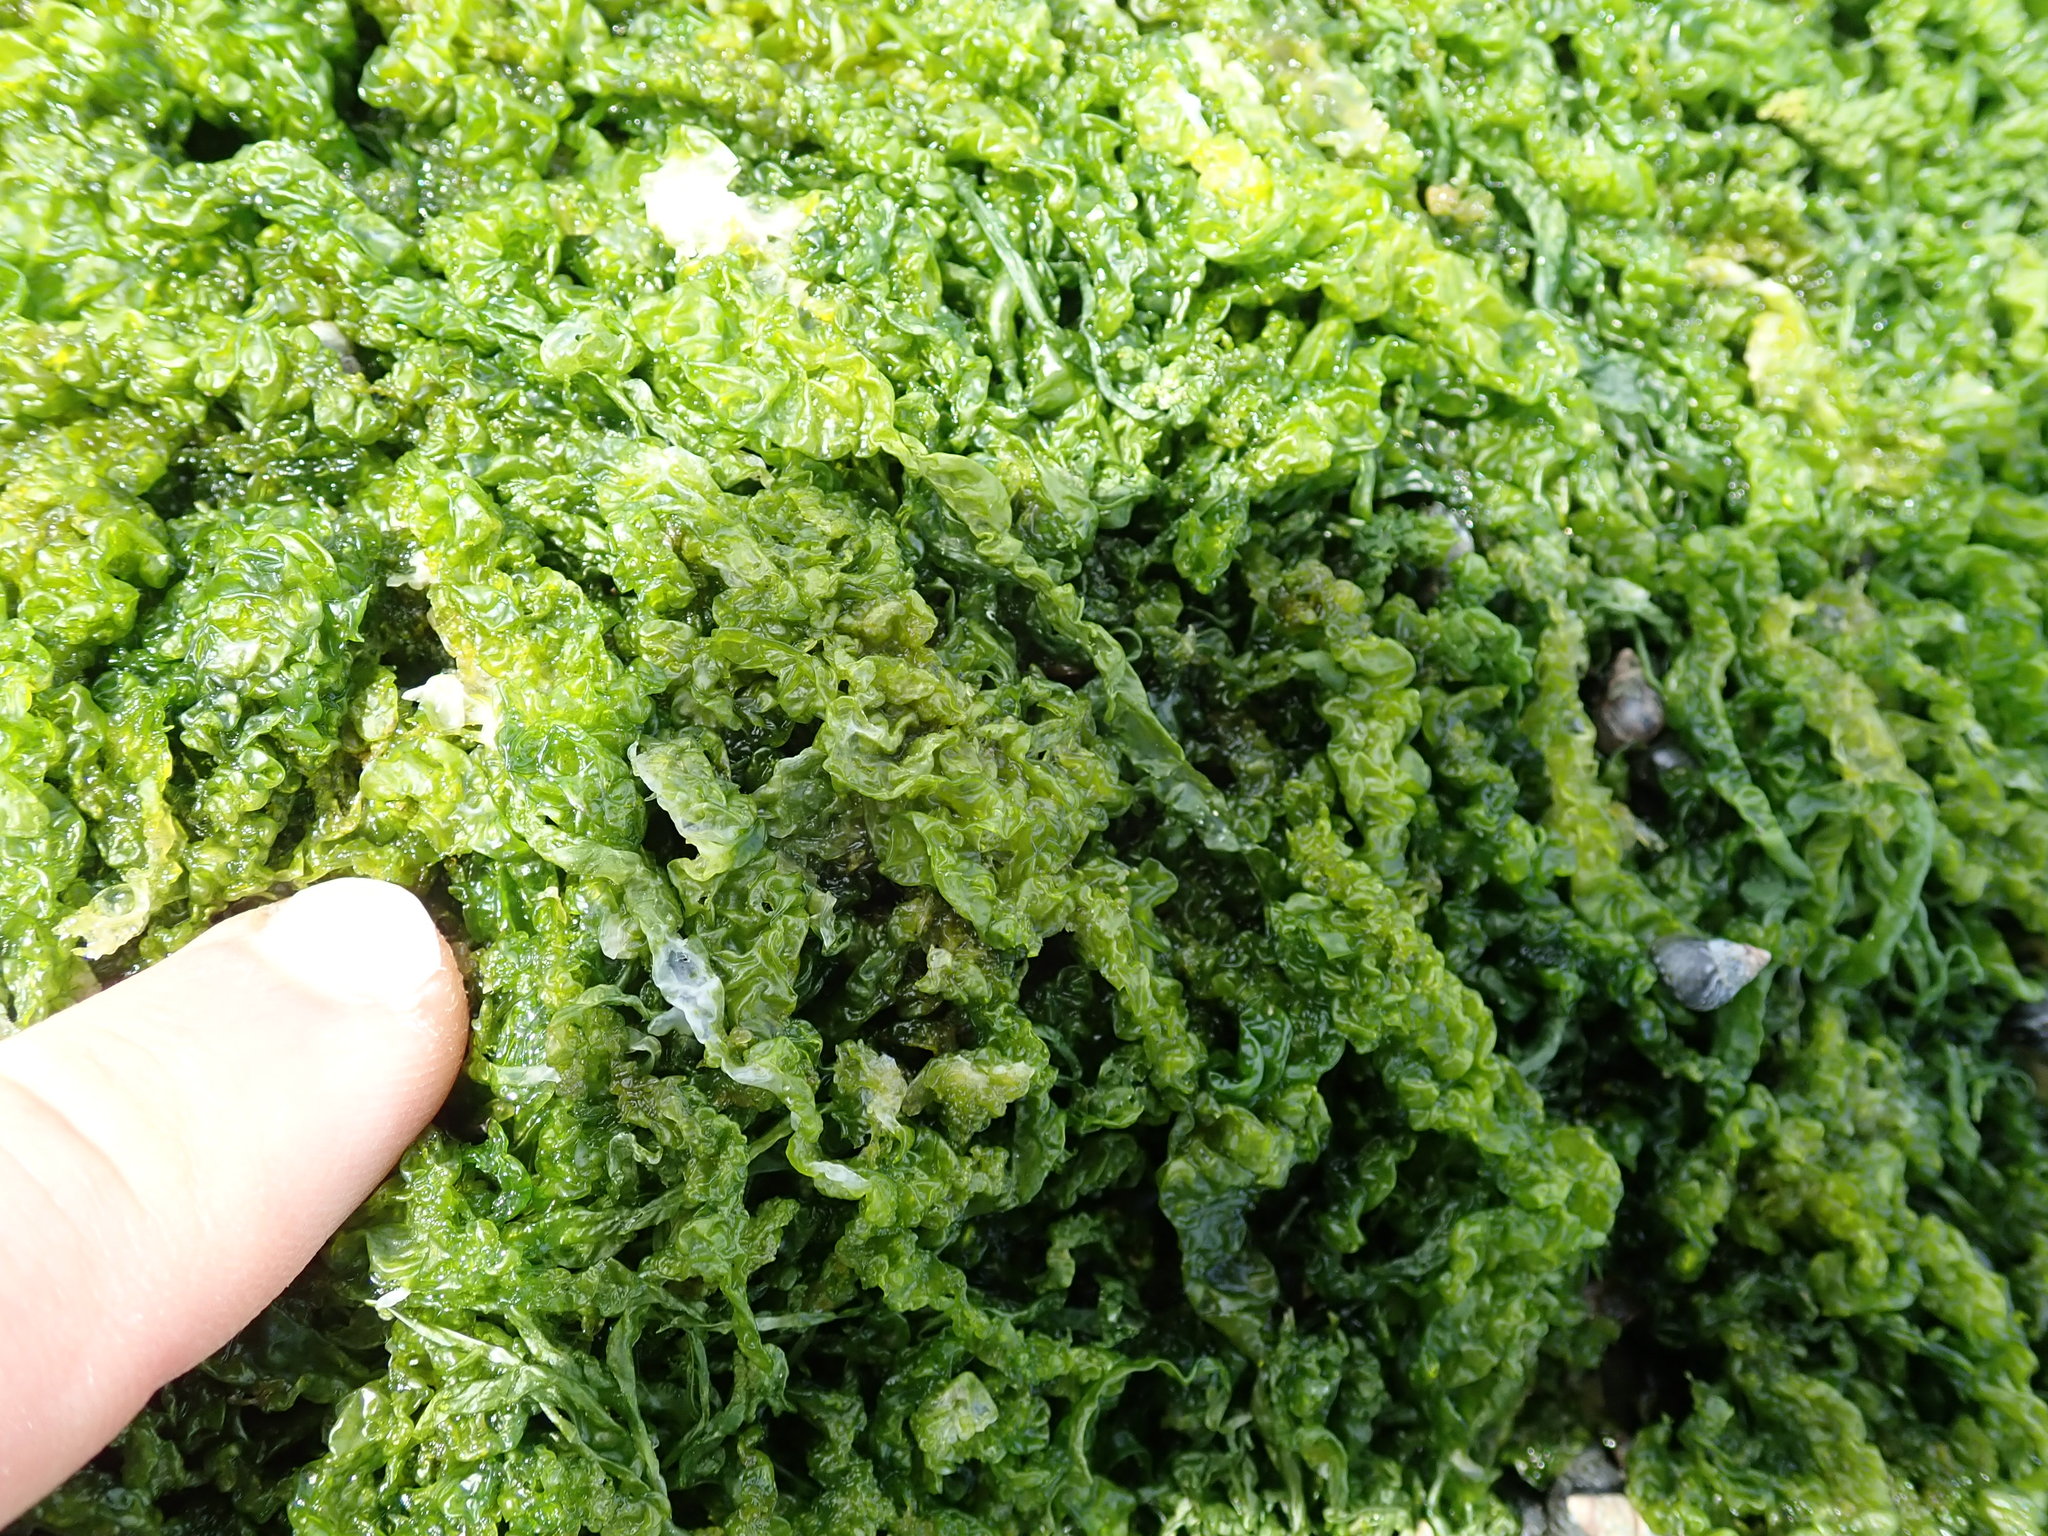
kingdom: Plantae
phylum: Chlorophyta
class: Ulvophyceae
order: Ulvales
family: Ulvaceae
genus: Ulva
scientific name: Ulva intestinalis
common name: Gut weed
